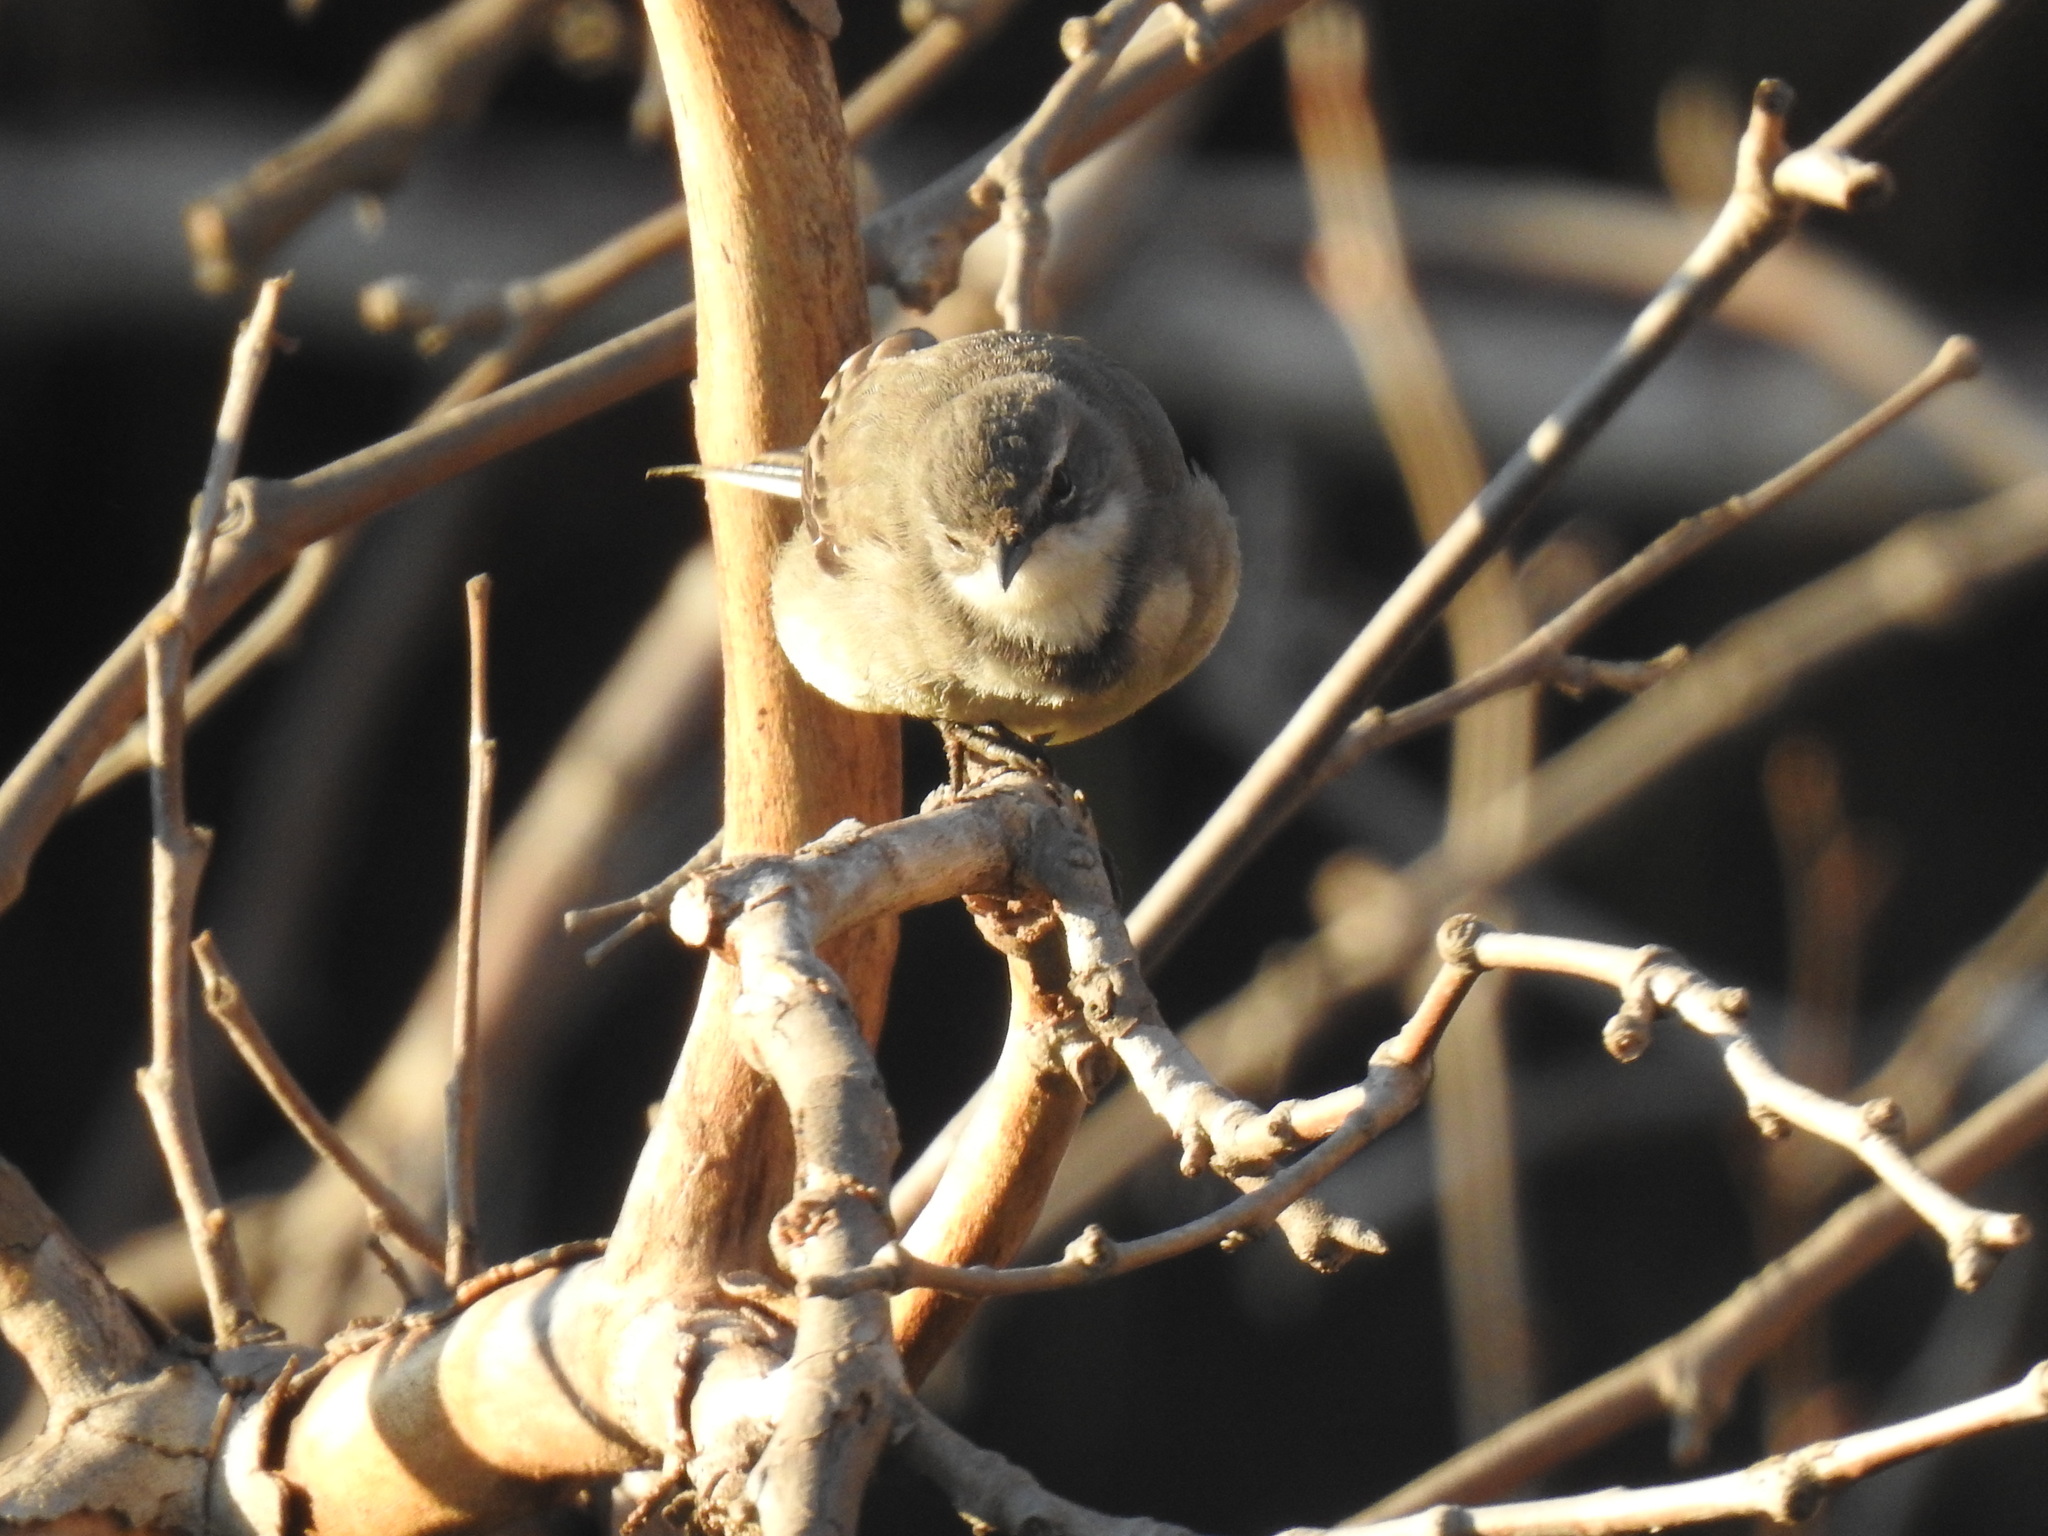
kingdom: Animalia
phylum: Chordata
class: Aves
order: Passeriformes
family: Motacillidae
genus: Motacilla
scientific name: Motacilla capensis
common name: Cape wagtail
